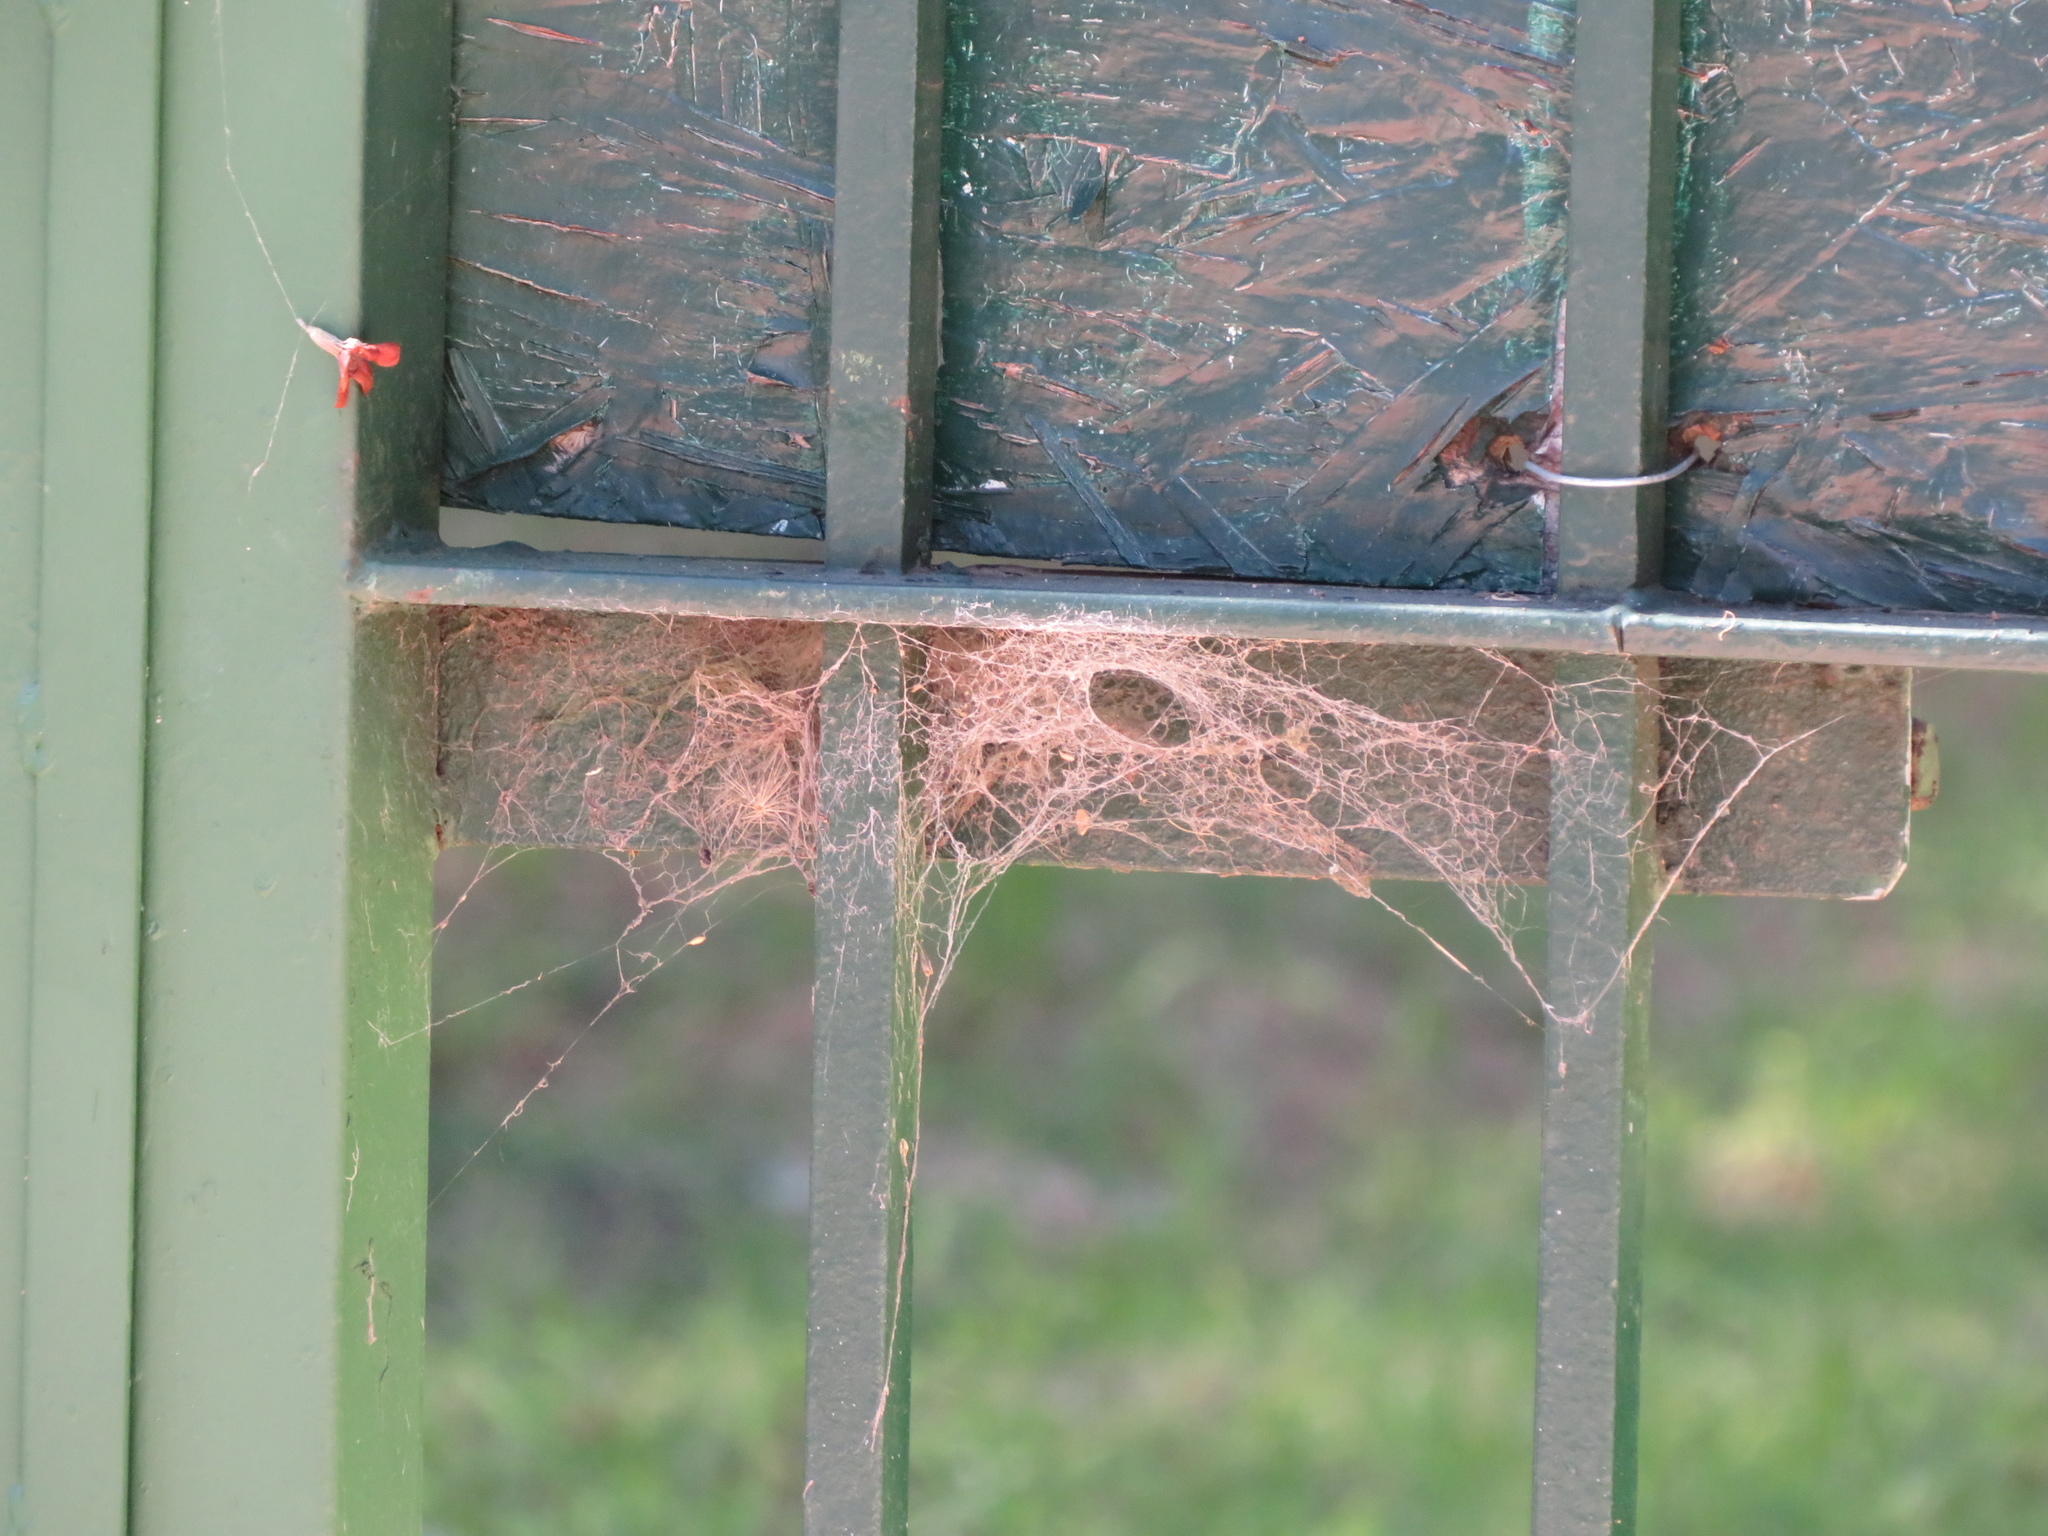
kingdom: Animalia
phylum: Arthropoda
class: Arachnida
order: Araneae
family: Desidae
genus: Badumna
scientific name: Badumna longinqua
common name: Gray house spider
